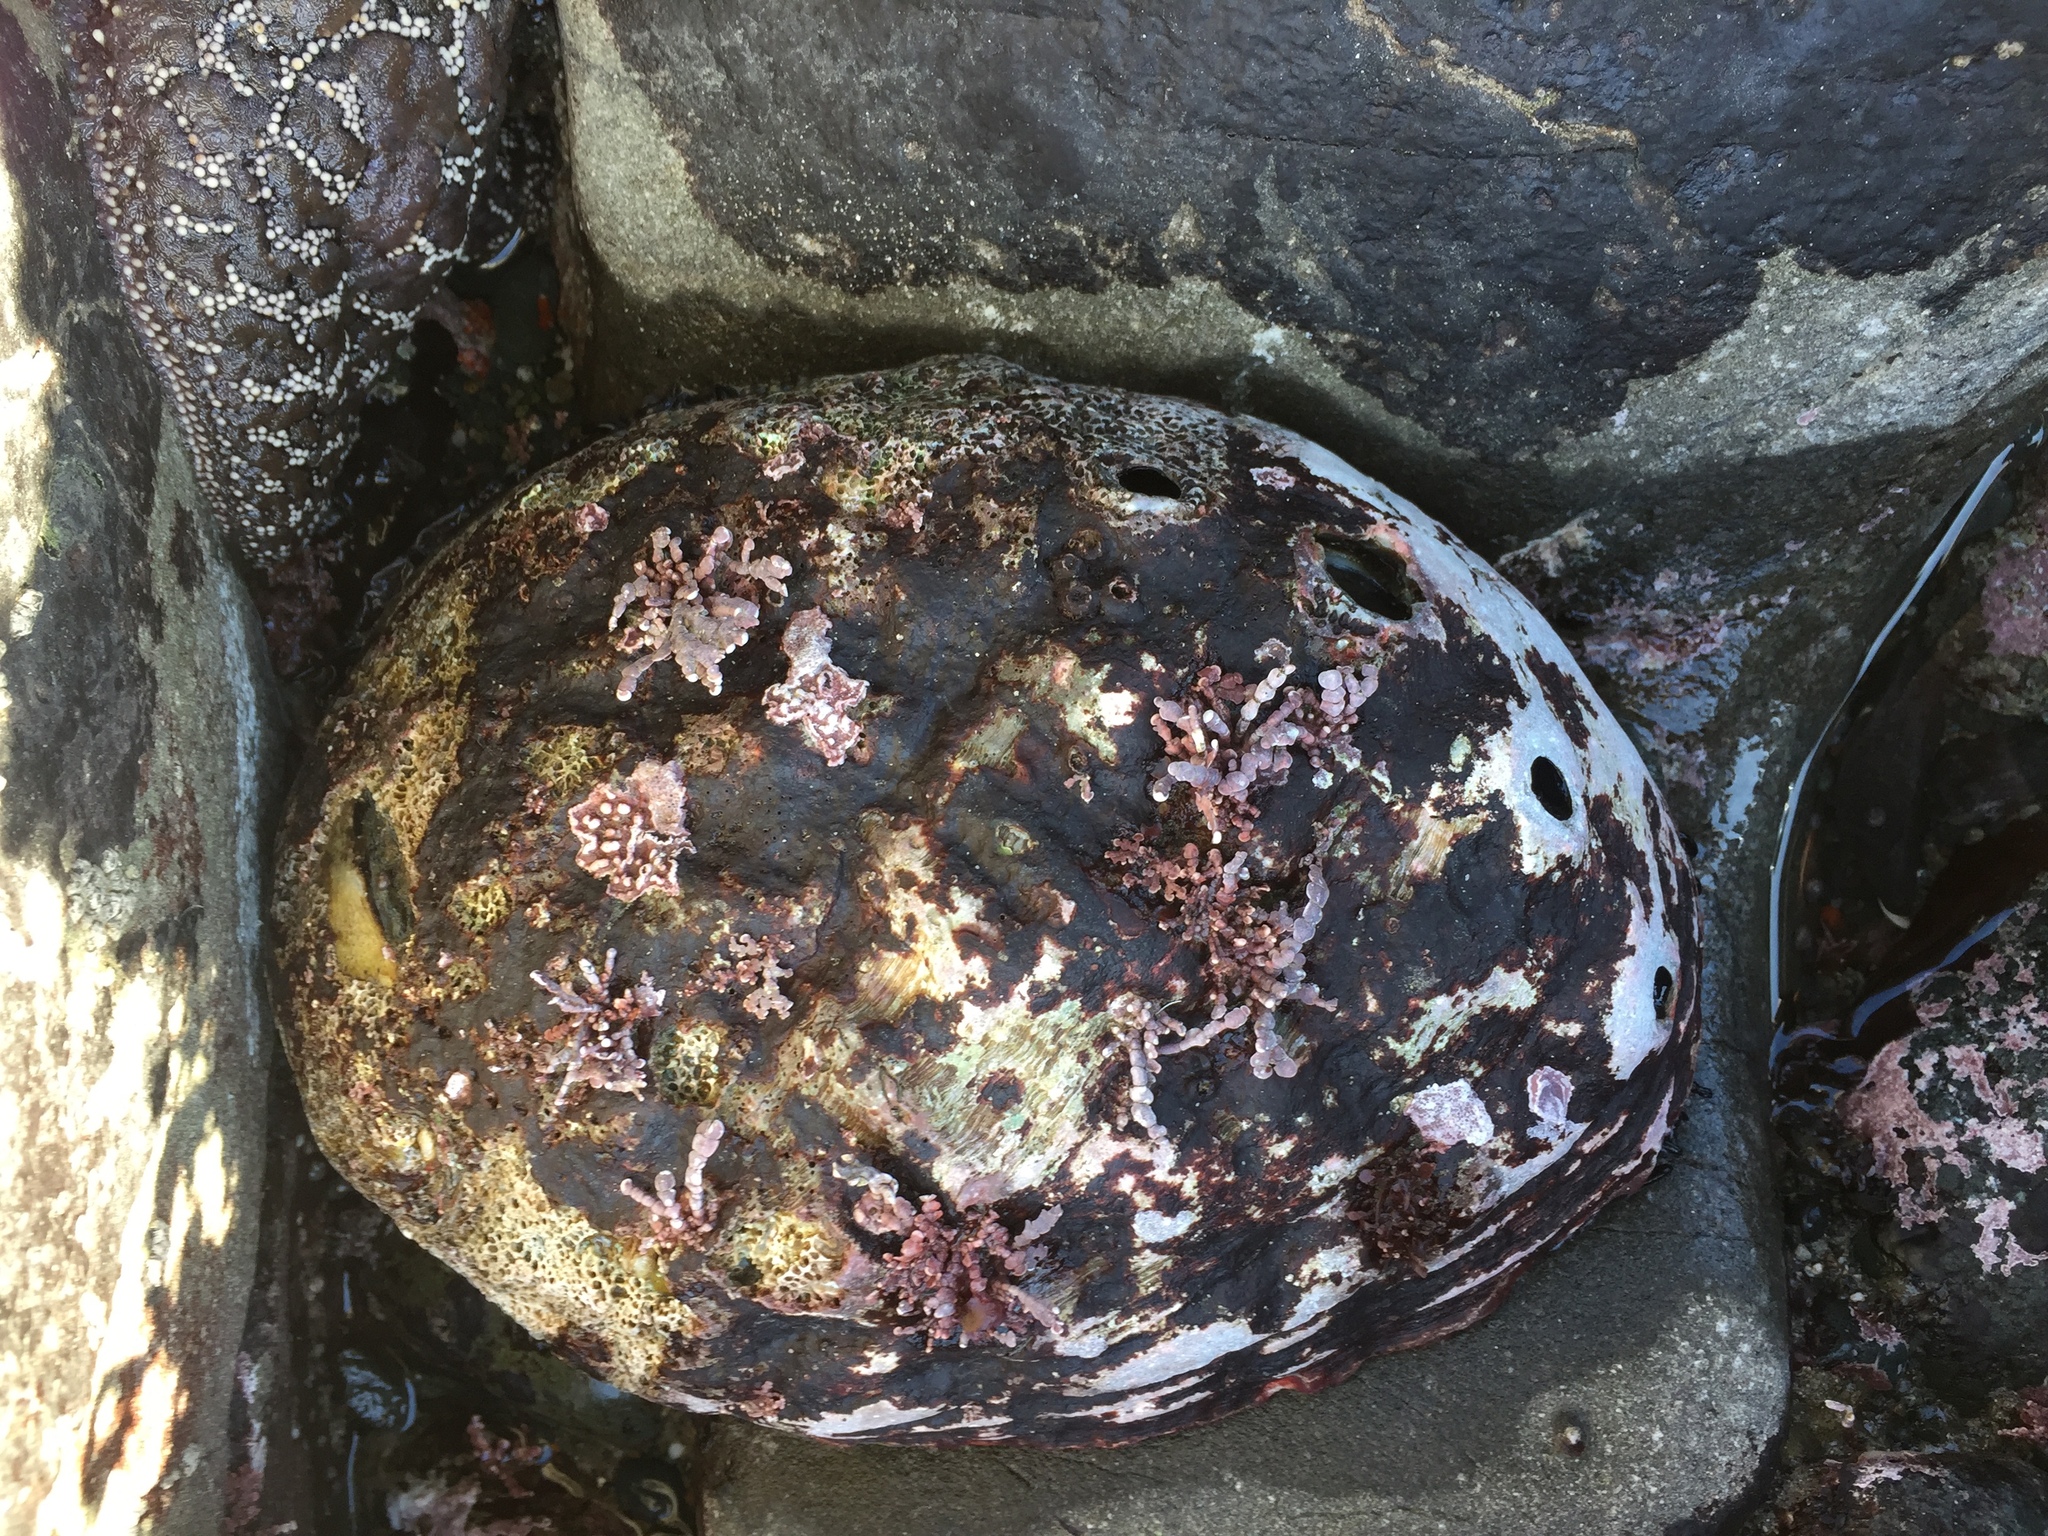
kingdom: Animalia
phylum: Mollusca
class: Gastropoda
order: Lepetellida
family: Haliotidae
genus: Haliotis
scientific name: Haliotis rufescens
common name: Red abalone
